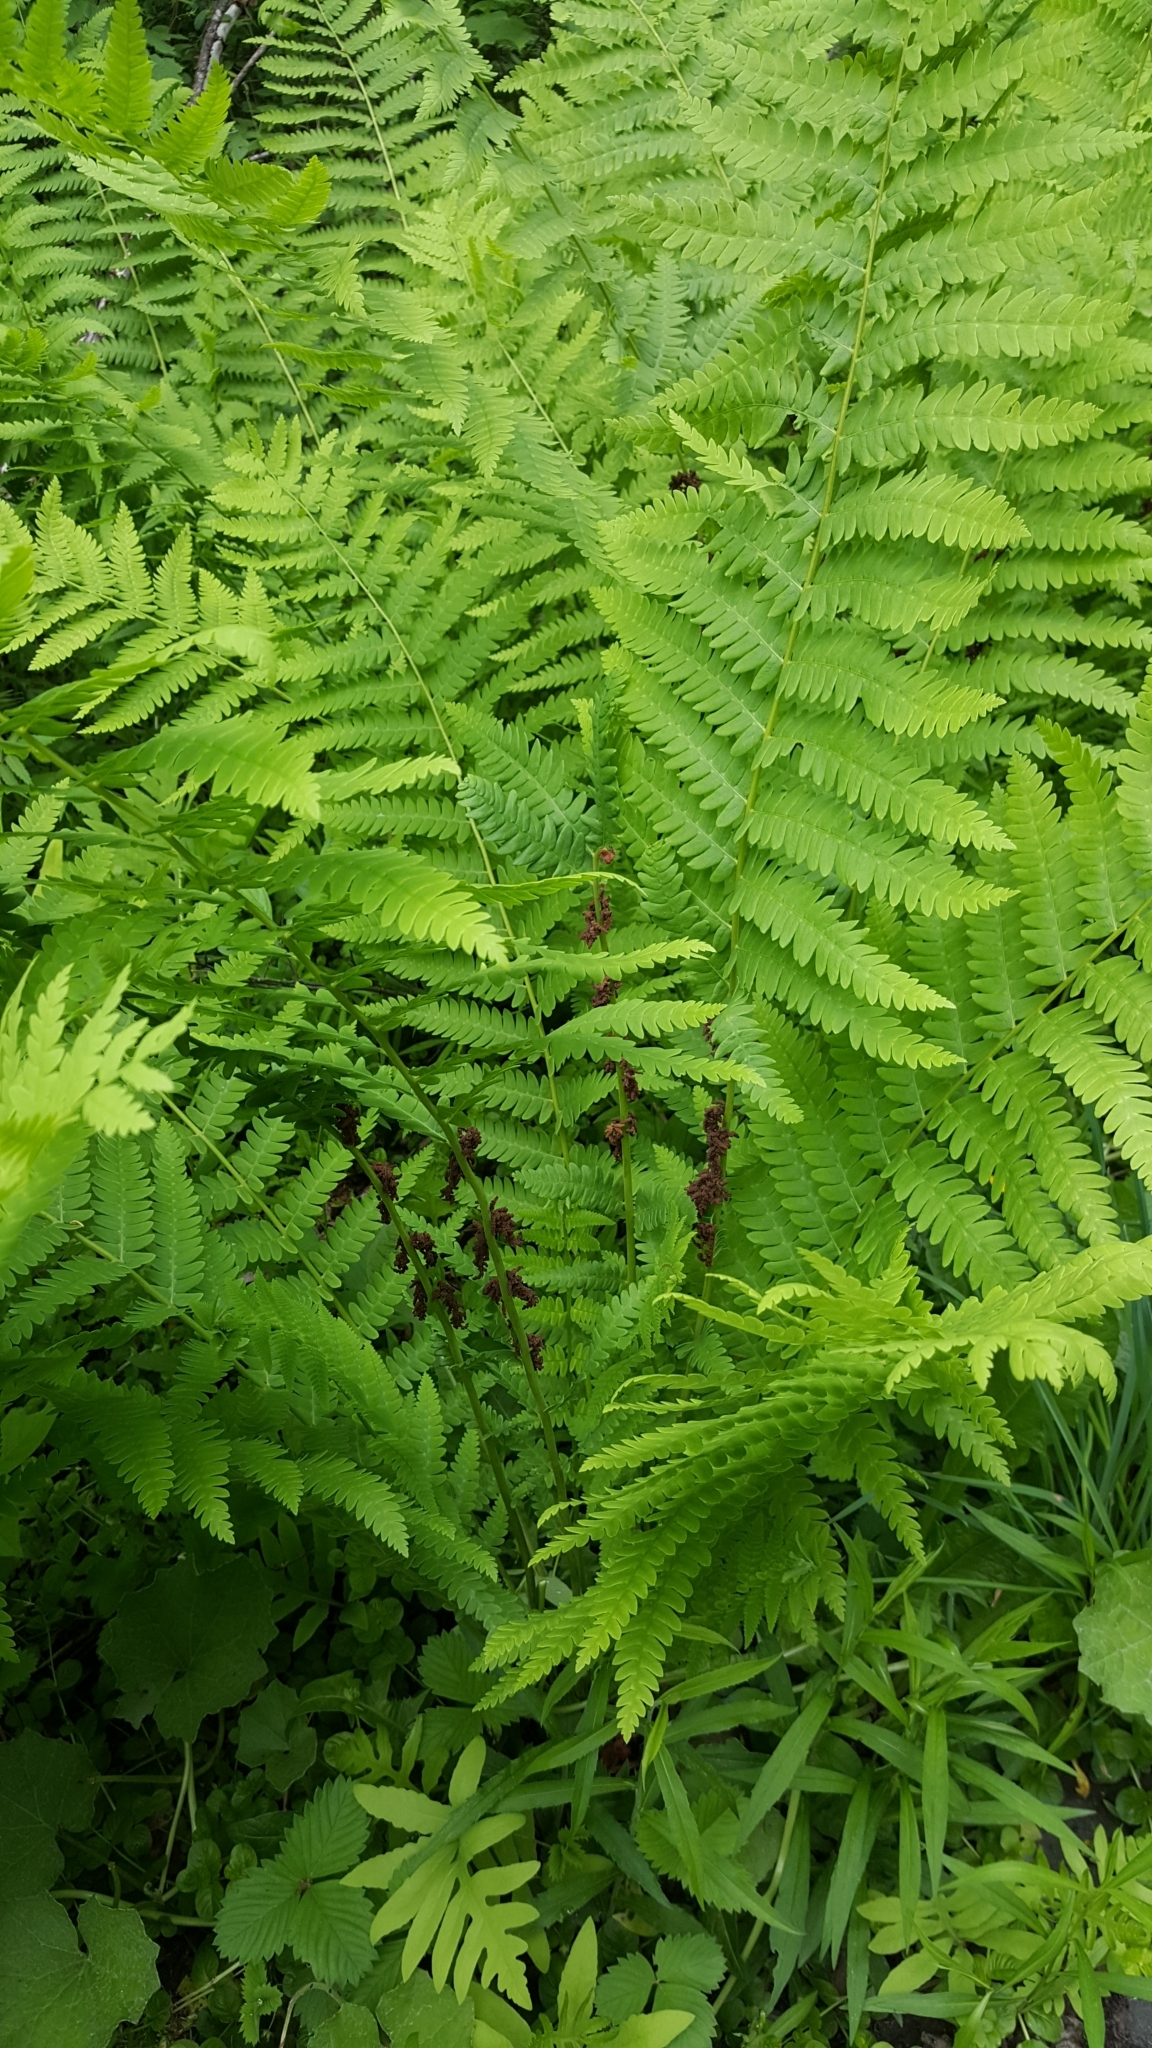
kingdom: Plantae
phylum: Tracheophyta
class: Polypodiopsida
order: Osmundales
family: Osmundaceae
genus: Claytosmunda
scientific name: Claytosmunda claytoniana
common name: Clayton's fern
